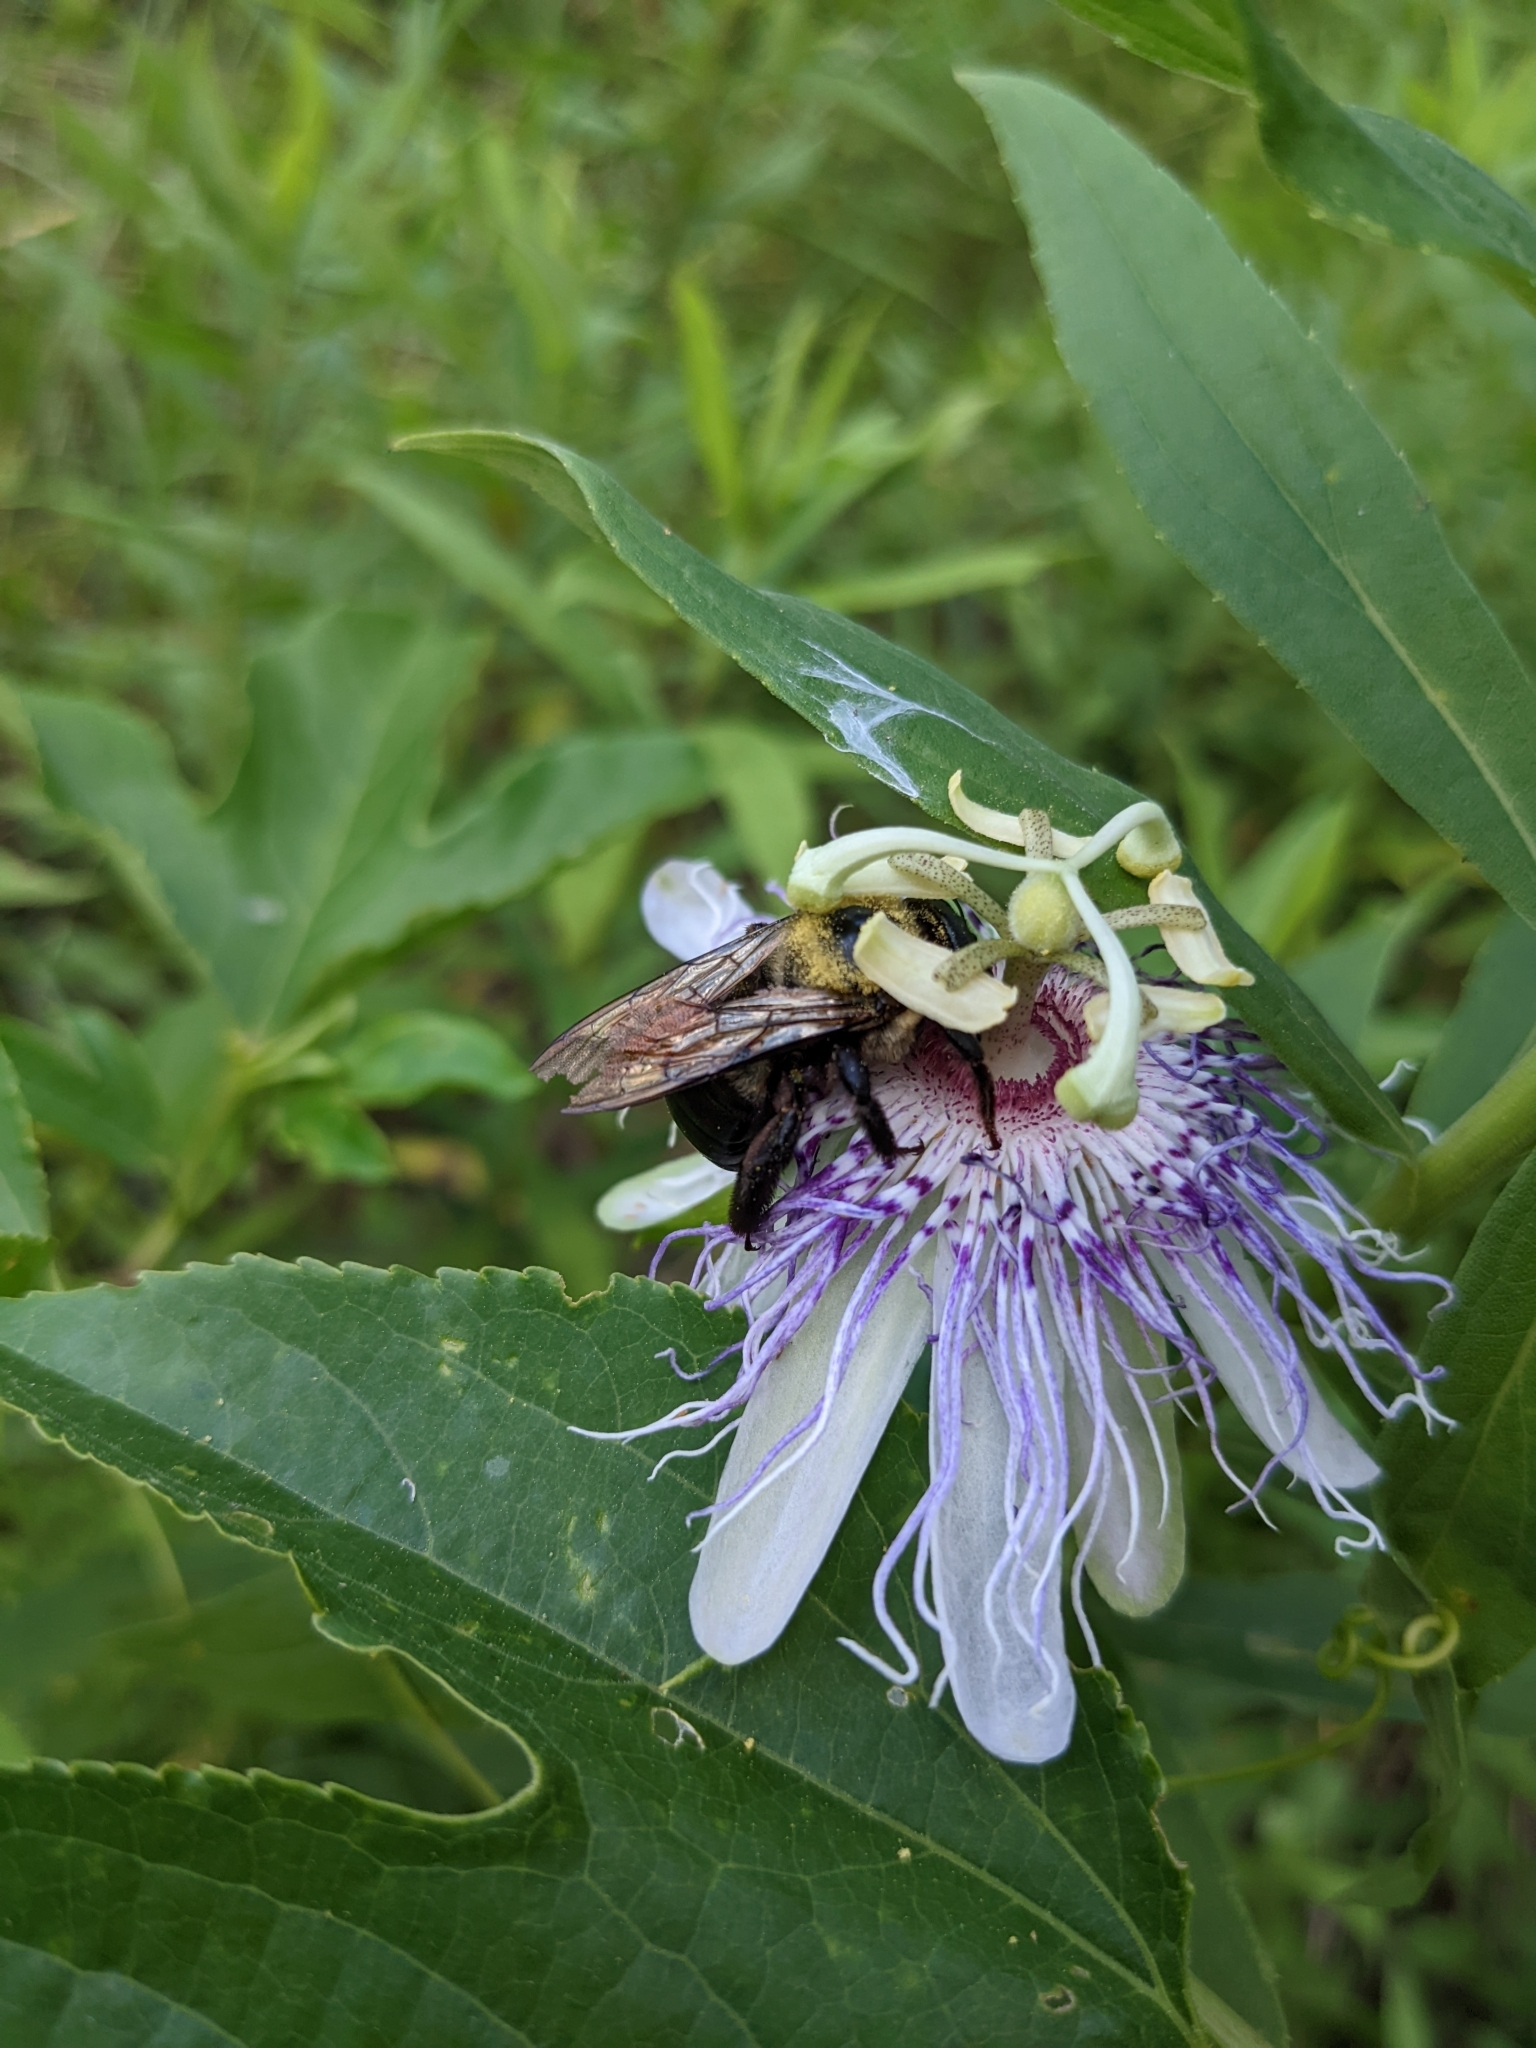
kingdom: Animalia
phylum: Arthropoda
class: Insecta
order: Hymenoptera
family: Apidae
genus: Xylocopa
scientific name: Xylocopa virginica
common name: Carpenter bee
